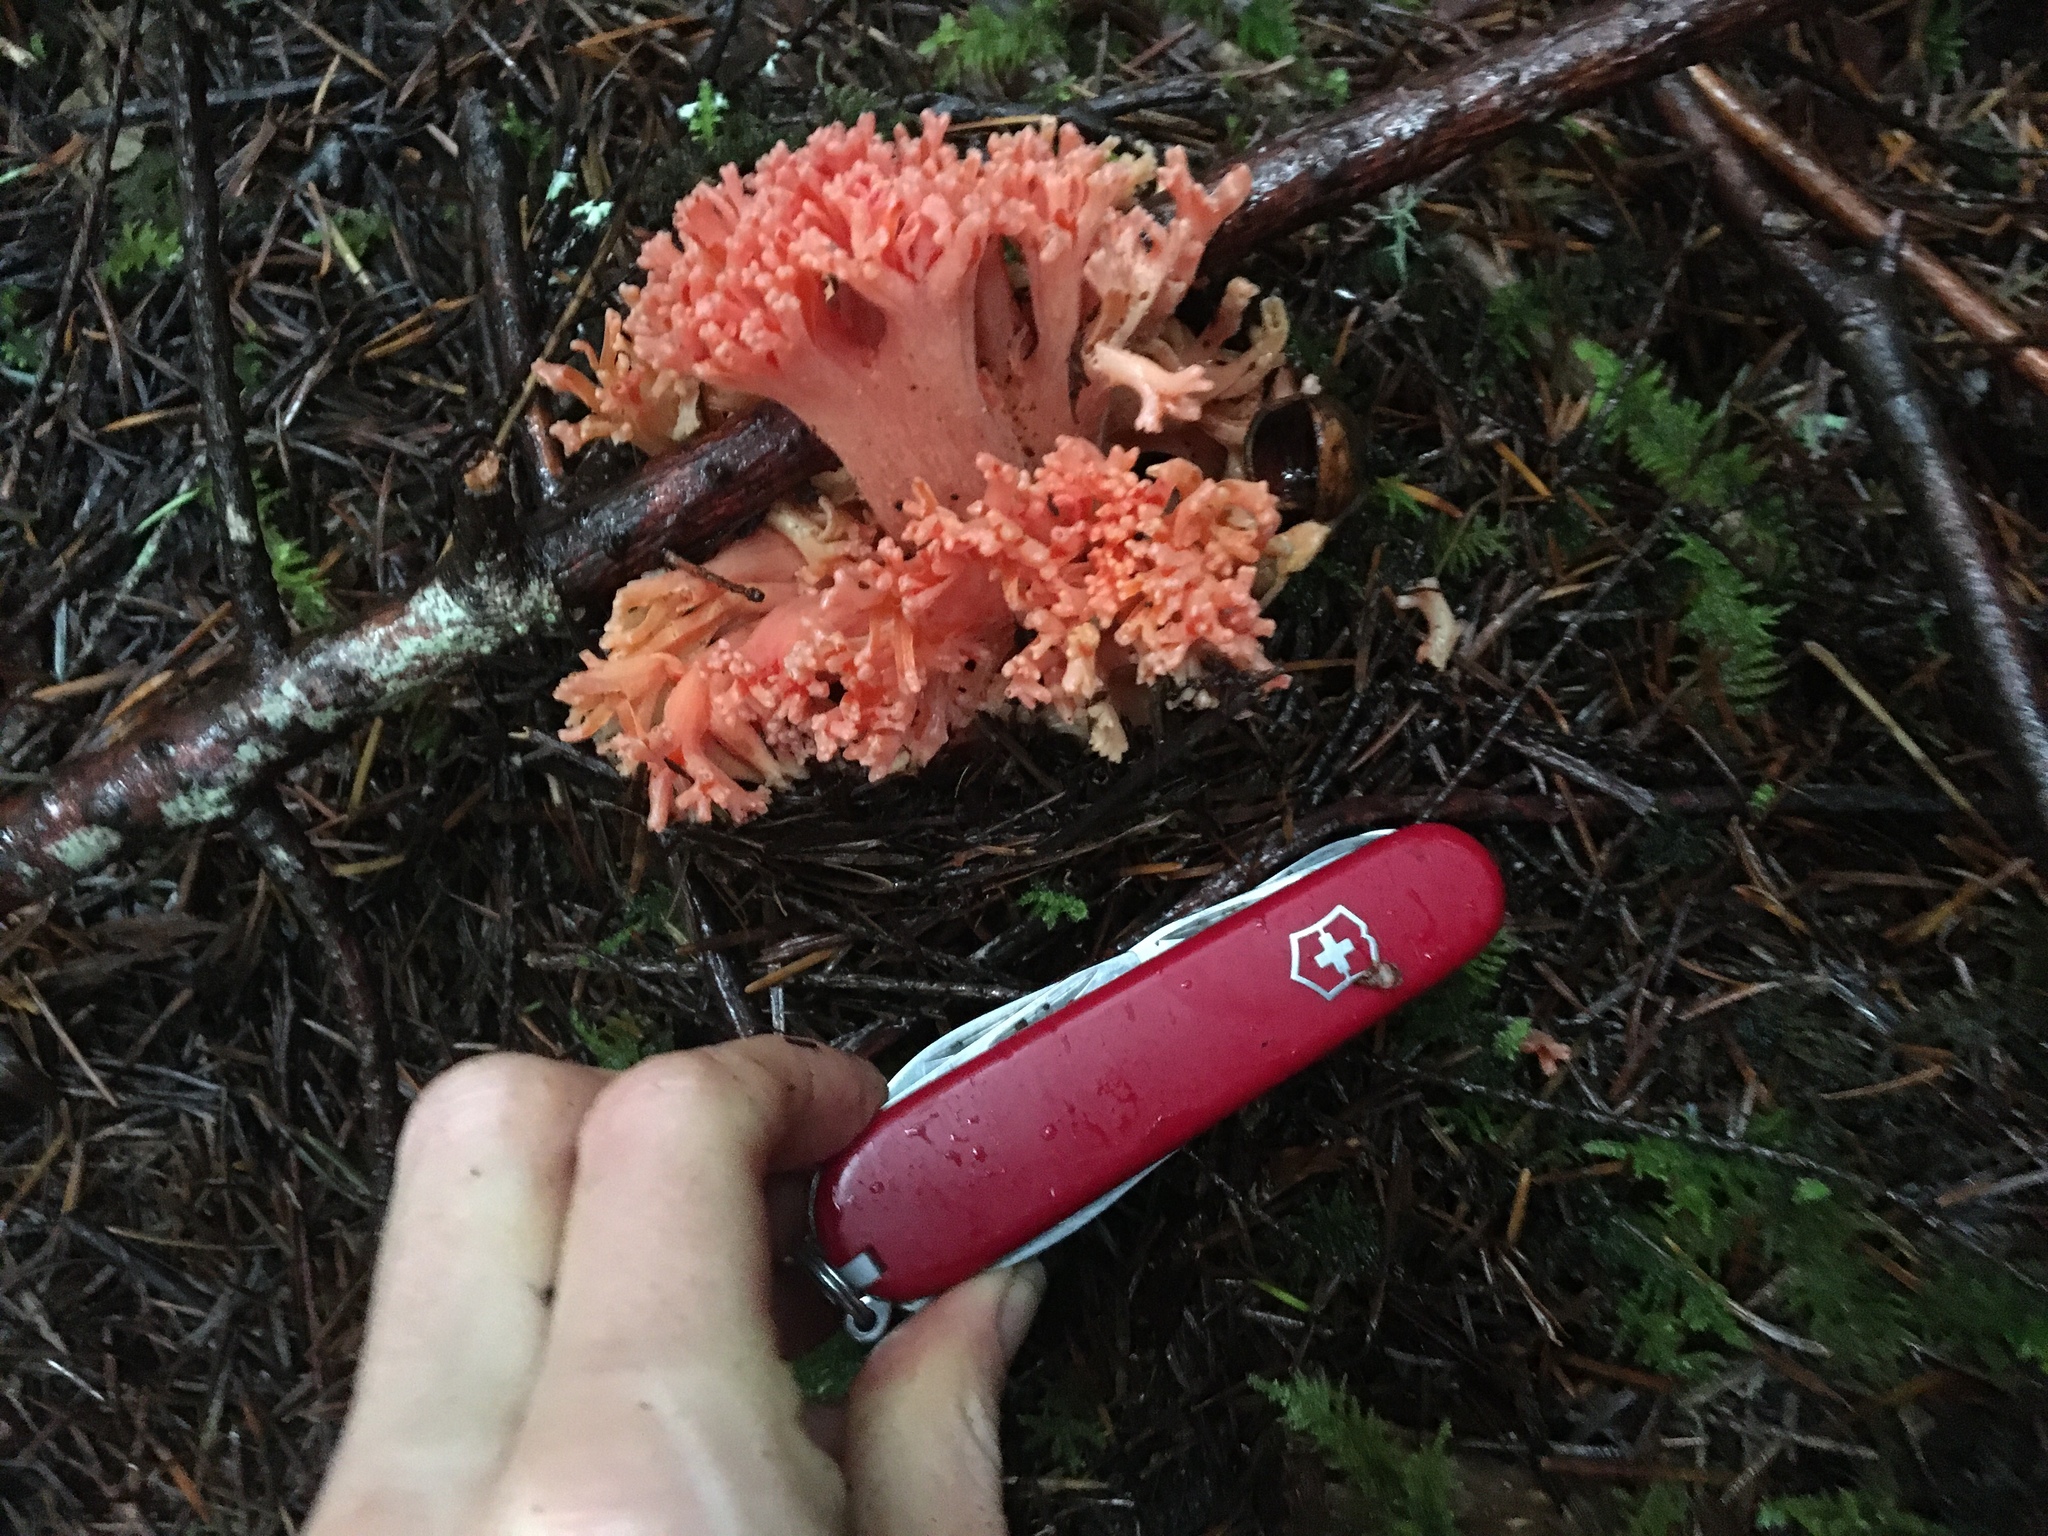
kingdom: Fungi
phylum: Basidiomycota
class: Agaricomycetes
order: Gomphales
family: Gomphaceae
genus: Ramaria
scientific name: Ramaria araiospora
